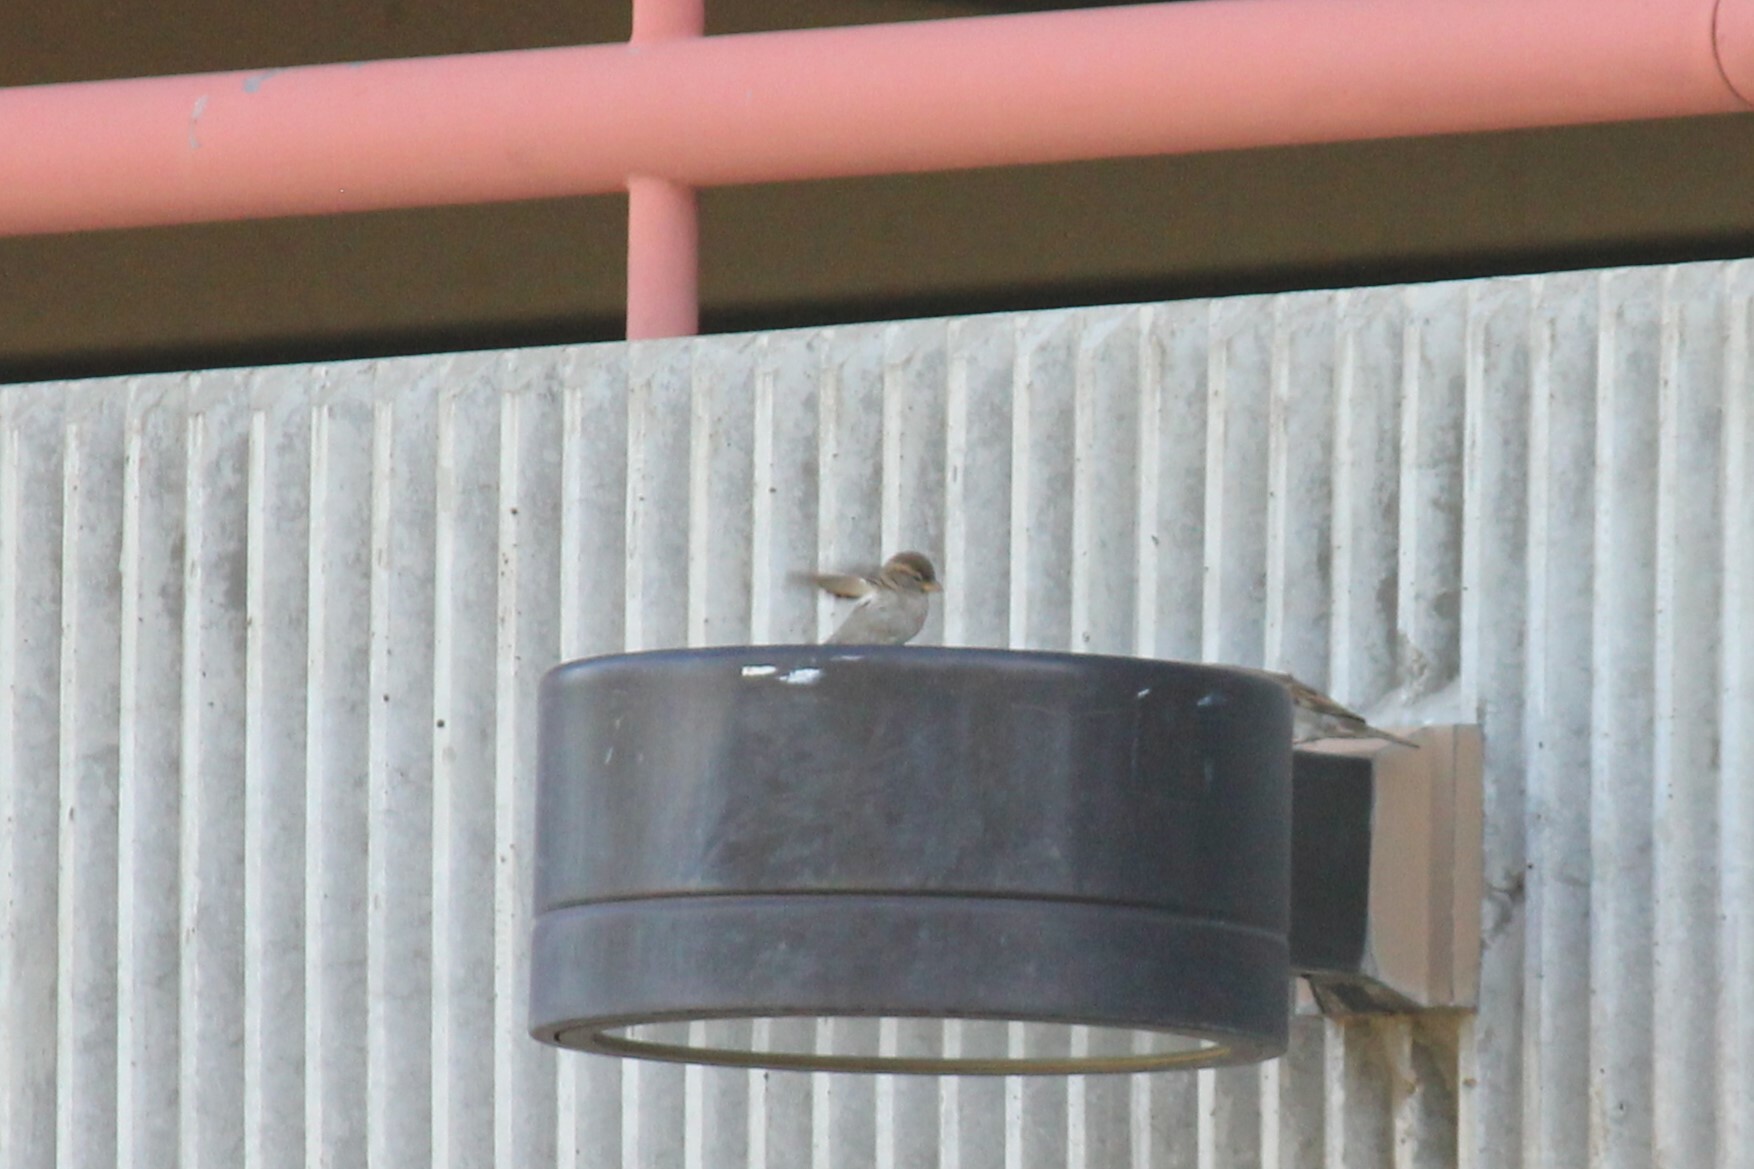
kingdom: Animalia
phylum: Chordata
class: Aves
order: Passeriformes
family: Passeridae
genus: Passer
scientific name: Passer domesticus
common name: House sparrow
